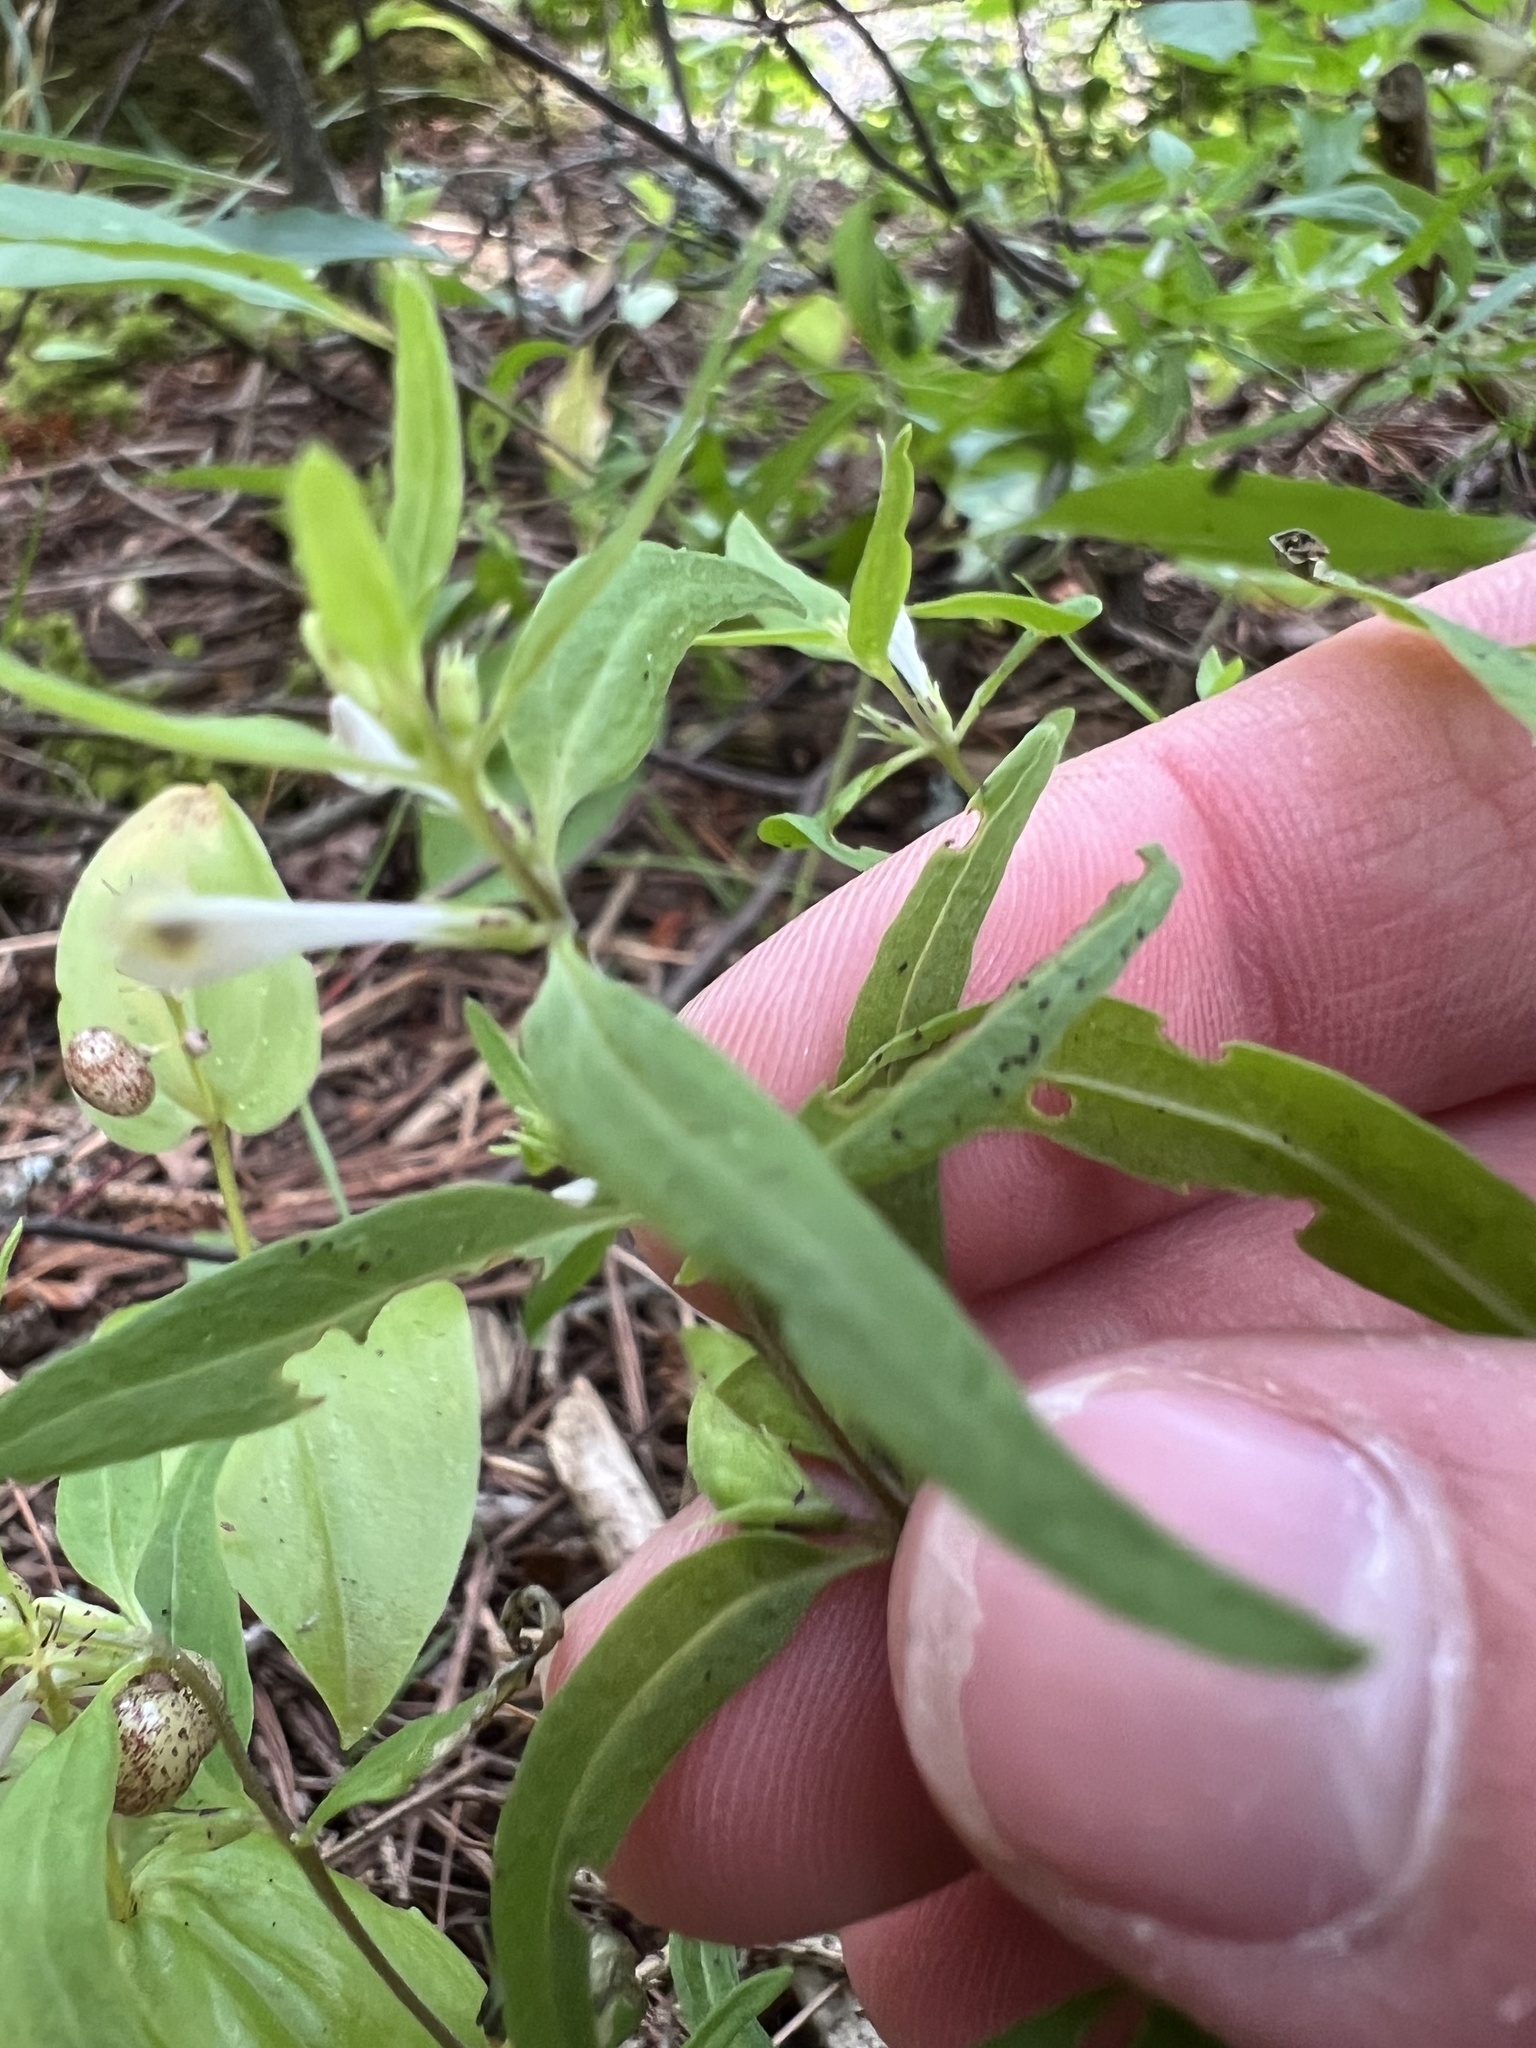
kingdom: Plantae
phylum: Tracheophyta
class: Magnoliopsida
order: Lamiales
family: Orobanchaceae
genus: Melampyrum
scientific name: Melampyrum lineare
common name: American cow-wheat
